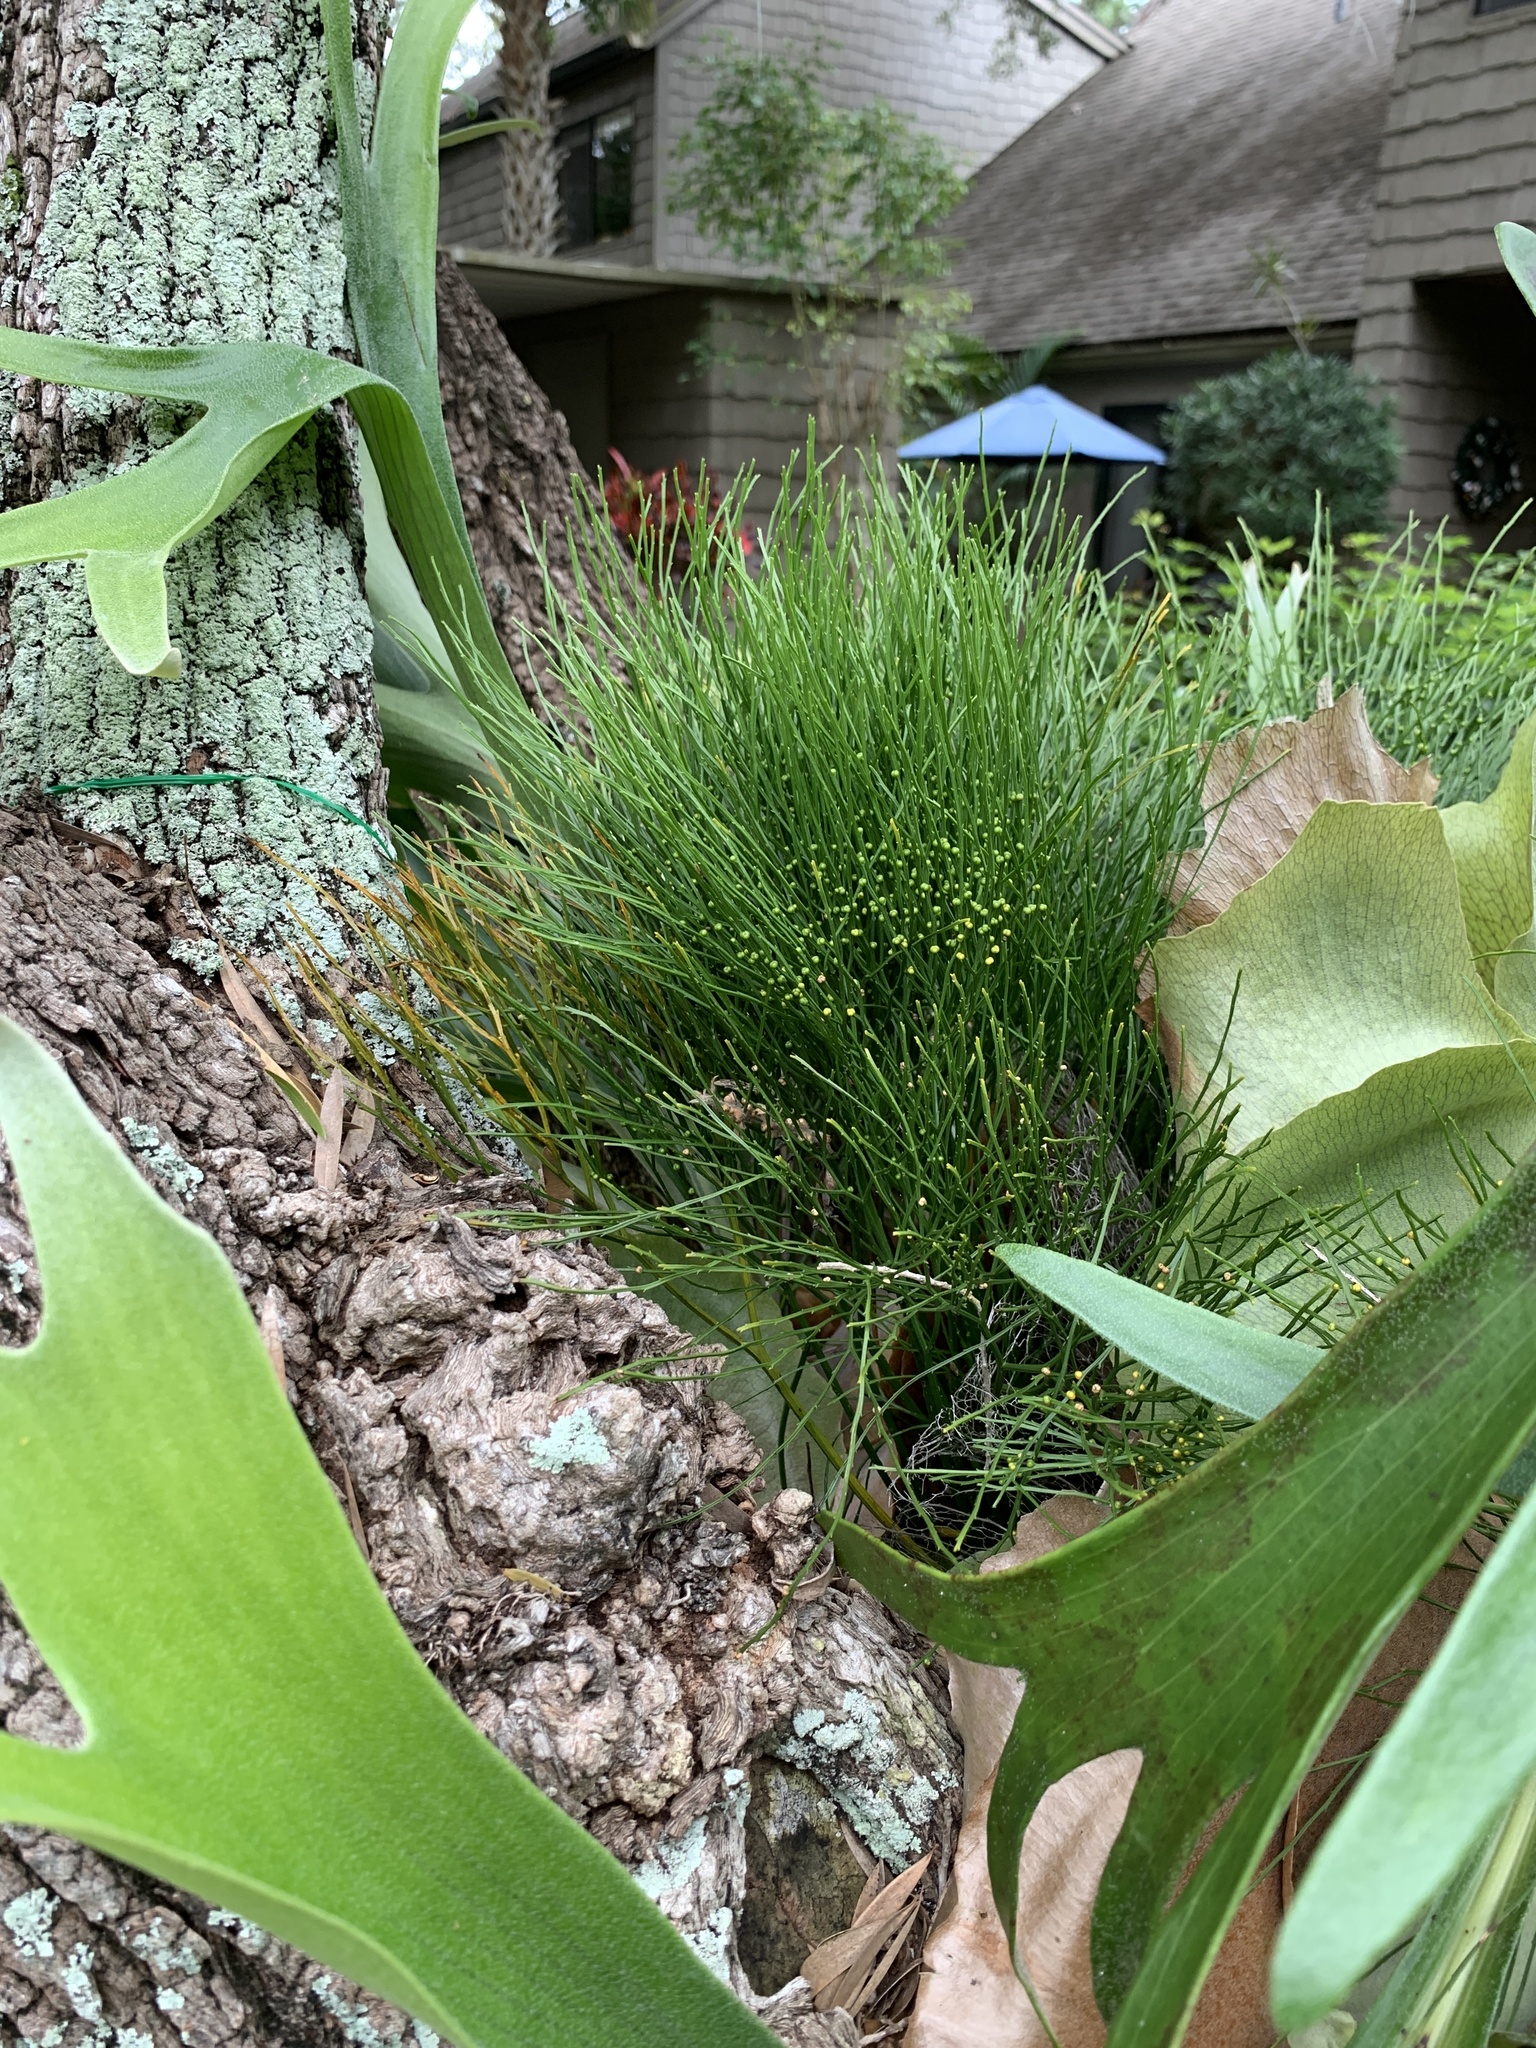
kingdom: Plantae
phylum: Tracheophyta
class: Polypodiopsida
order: Psilotales
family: Psilotaceae
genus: Psilotum
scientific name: Psilotum nudum
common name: Skeleton fork fern
